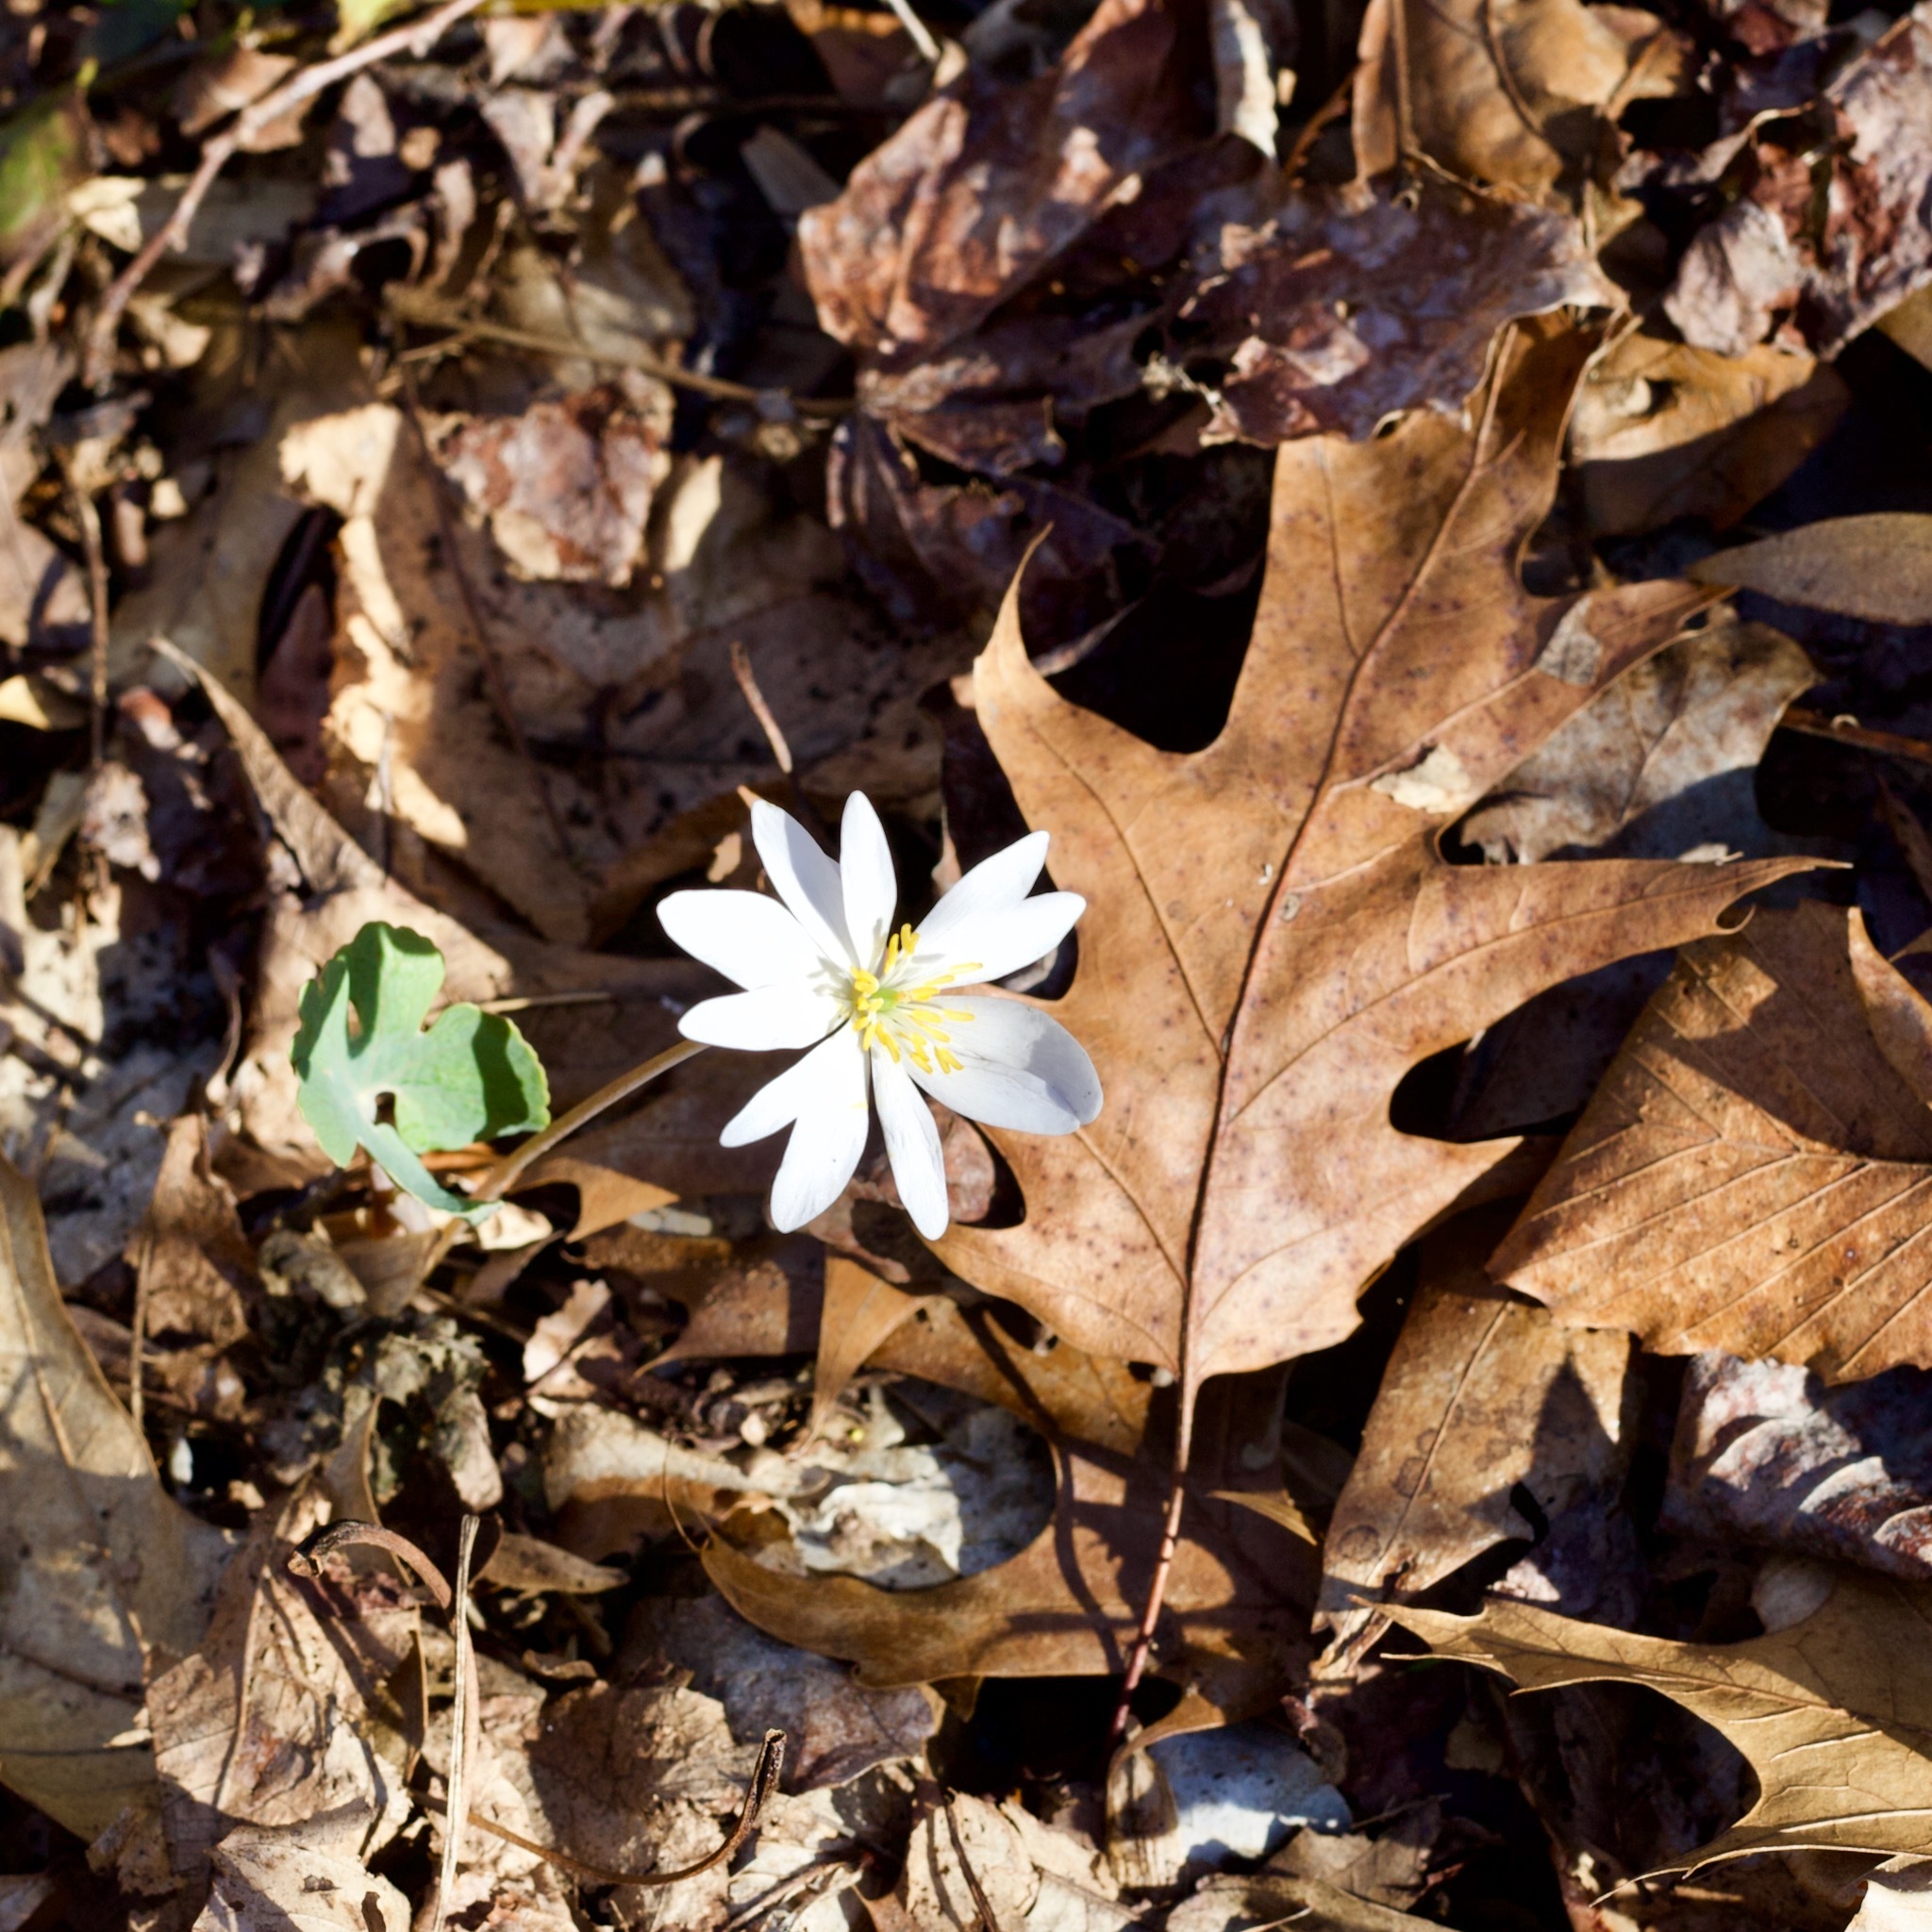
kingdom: Plantae
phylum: Tracheophyta
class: Magnoliopsida
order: Ranunculales
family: Papaveraceae
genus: Sanguinaria
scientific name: Sanguinaria canadensis
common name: Bloodroot
